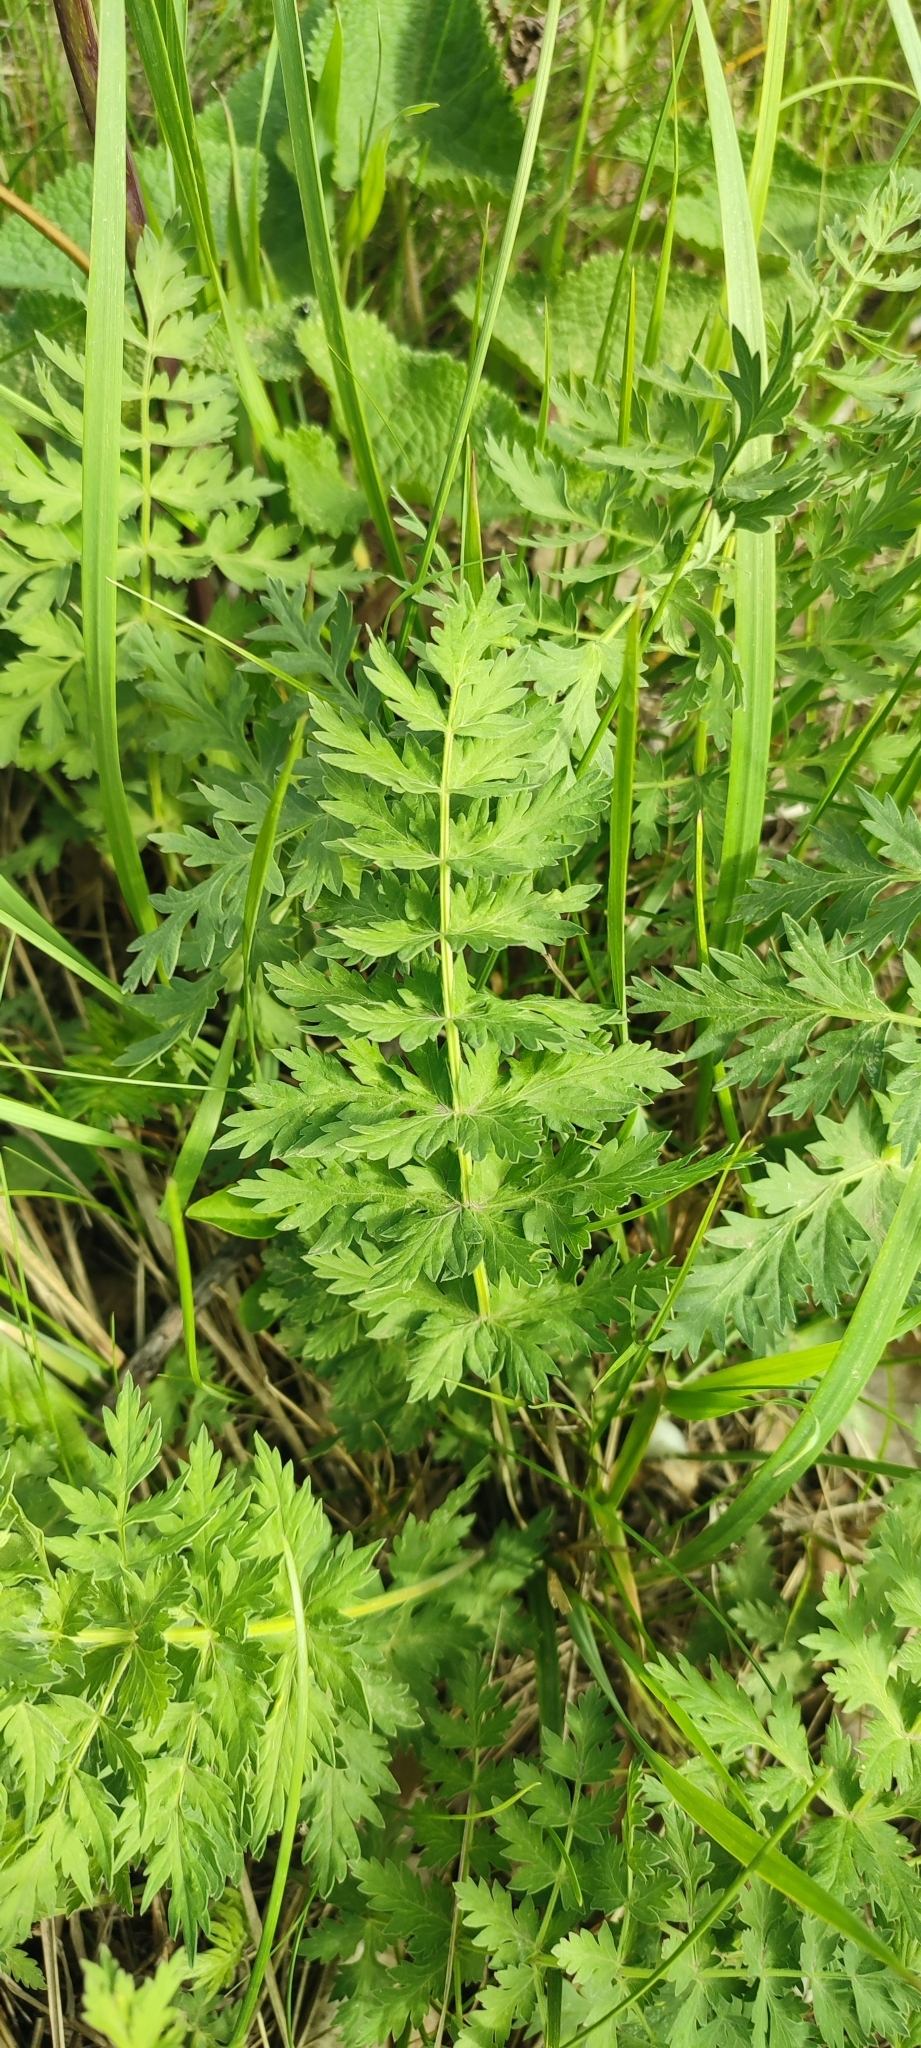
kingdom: Plantae
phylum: Tracheophyta
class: Magnoliopsida
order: Apiales
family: Apiaceae
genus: Seseli
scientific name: Seseli libanotis
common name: Mooncarrot
